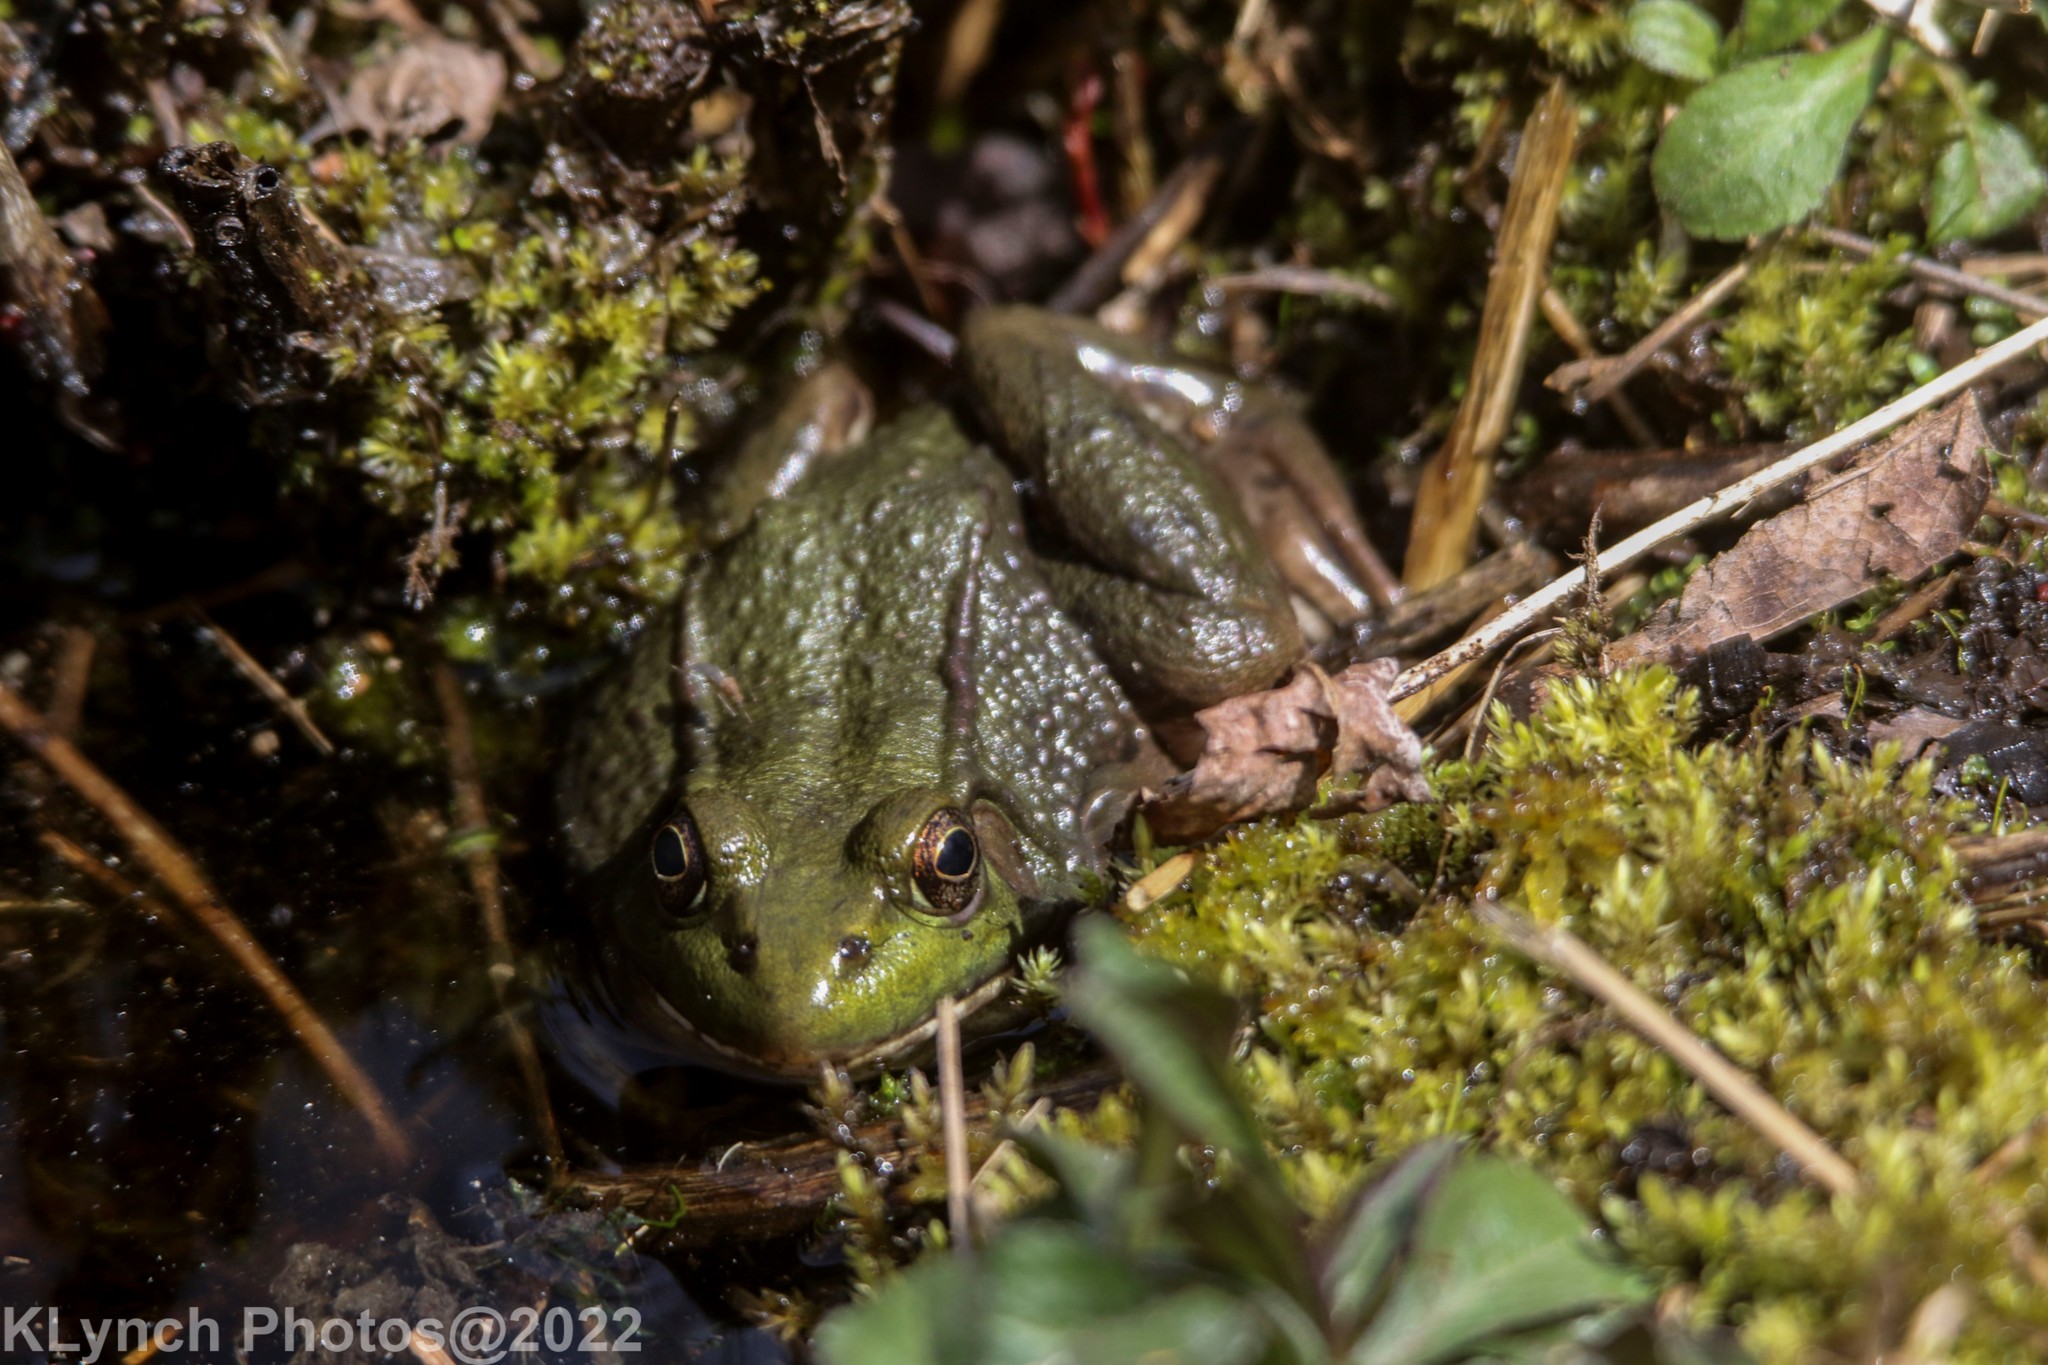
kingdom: Animalia
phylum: Chordata
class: Amphibia
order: Anura
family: Ranidae
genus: Lithobates
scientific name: Lithobates clamitans
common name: Green frog
